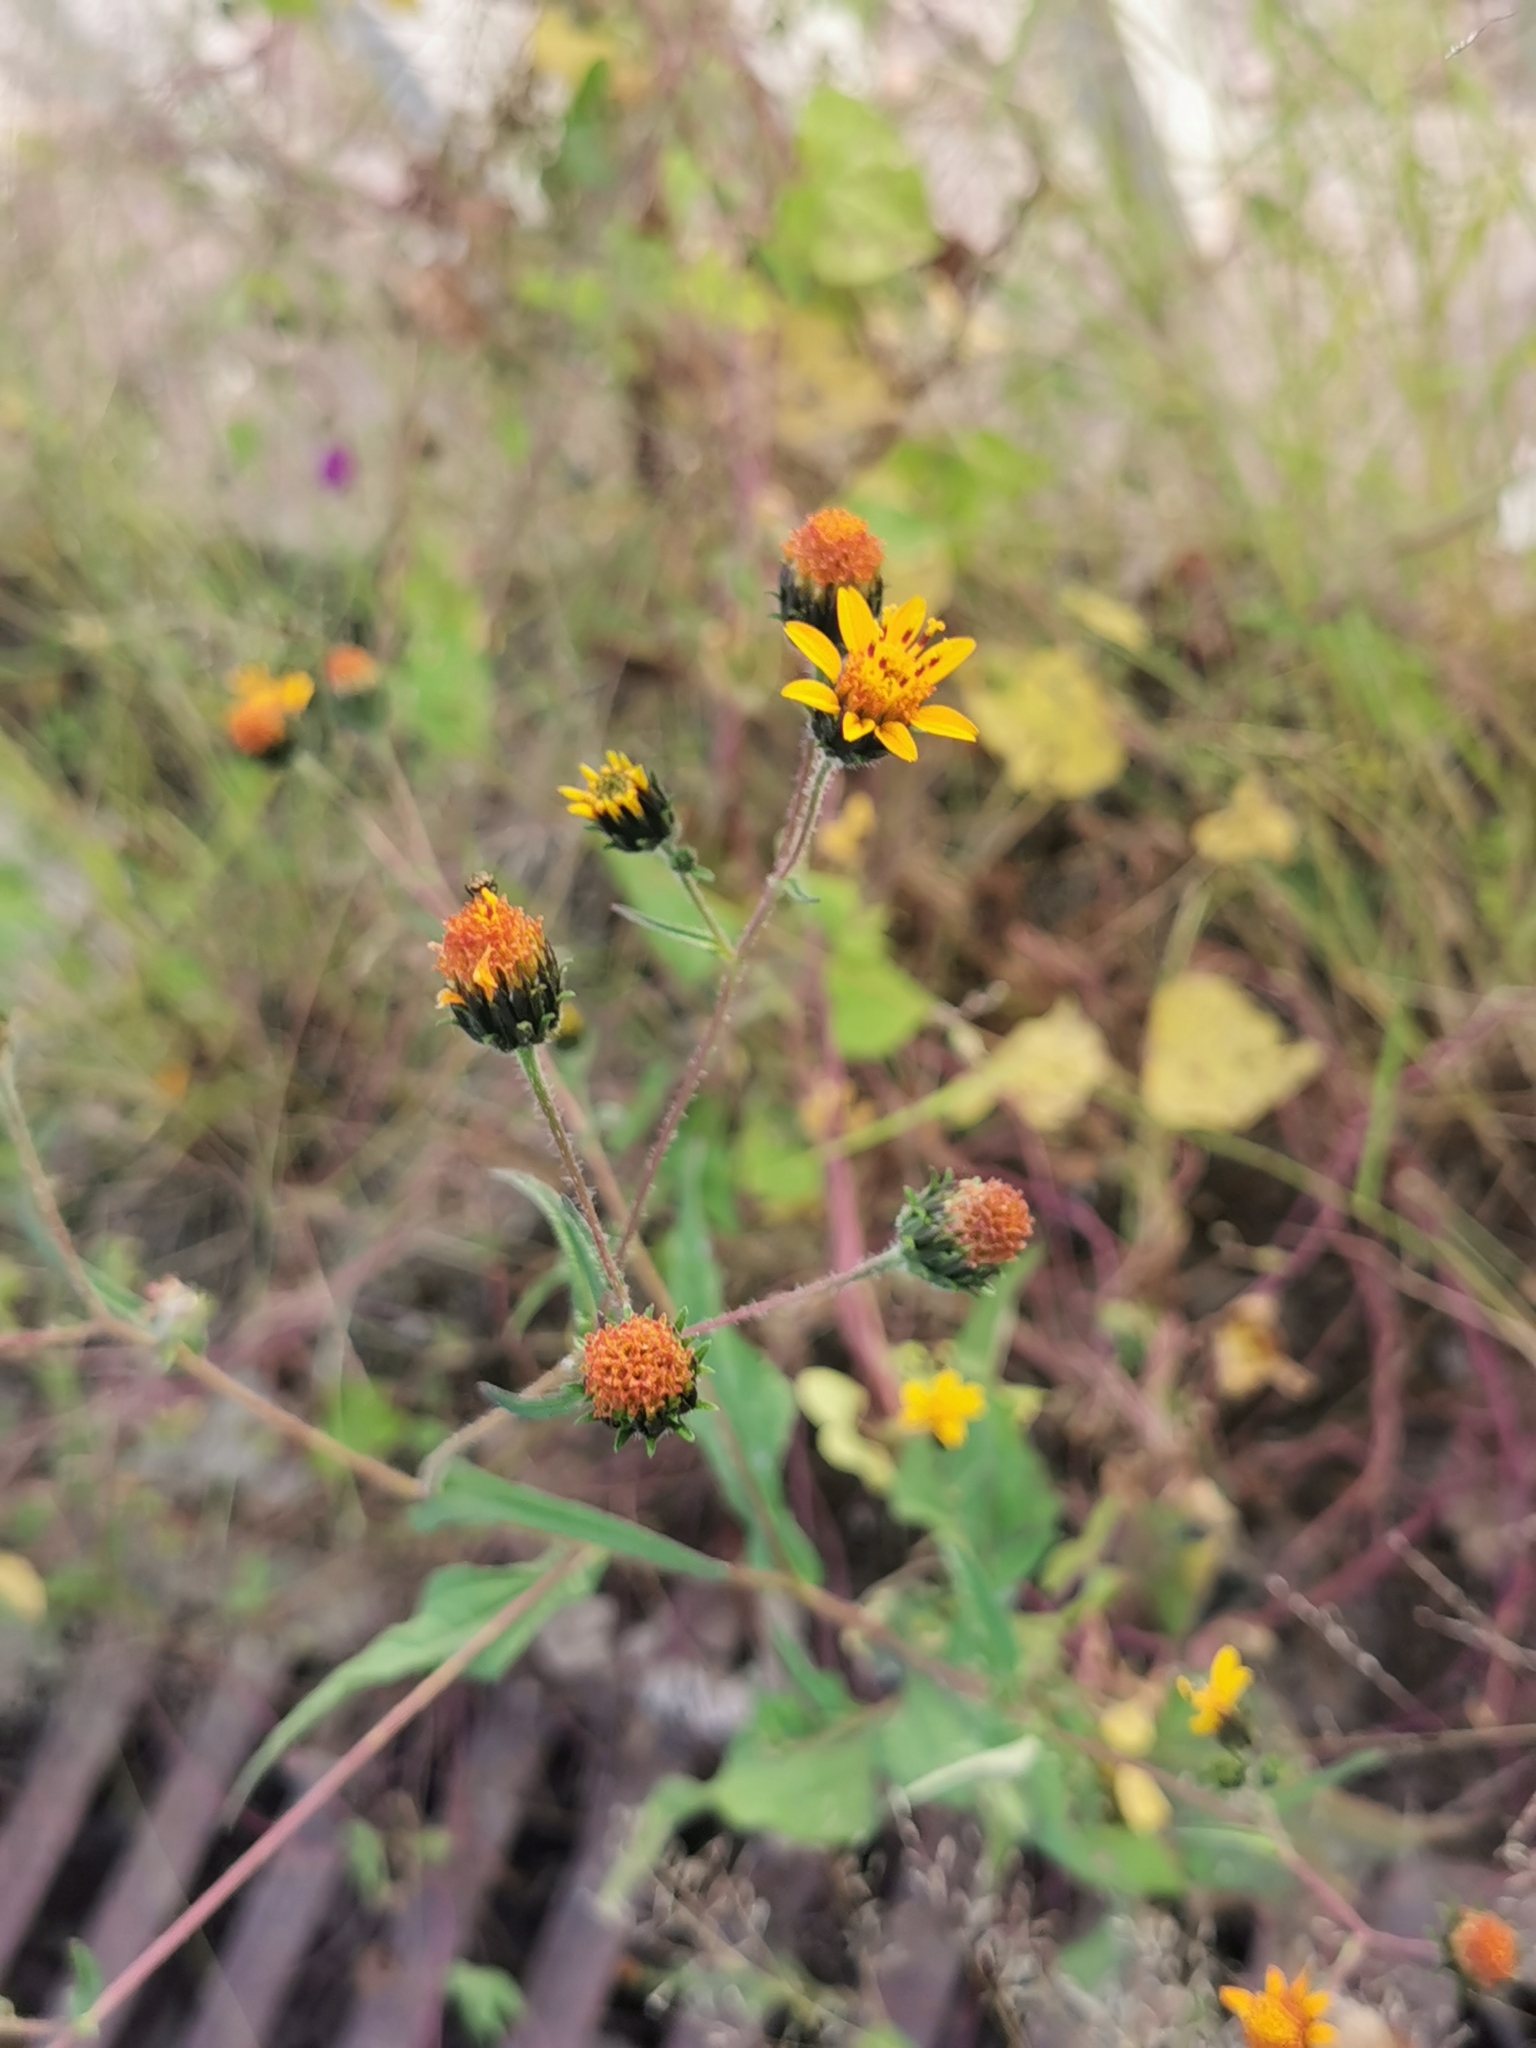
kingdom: Plantae
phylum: Tracheophyta
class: Magnoliopsida
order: Asterales
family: Asteraceae
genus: Simsia
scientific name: Simsia amplexicaulis
